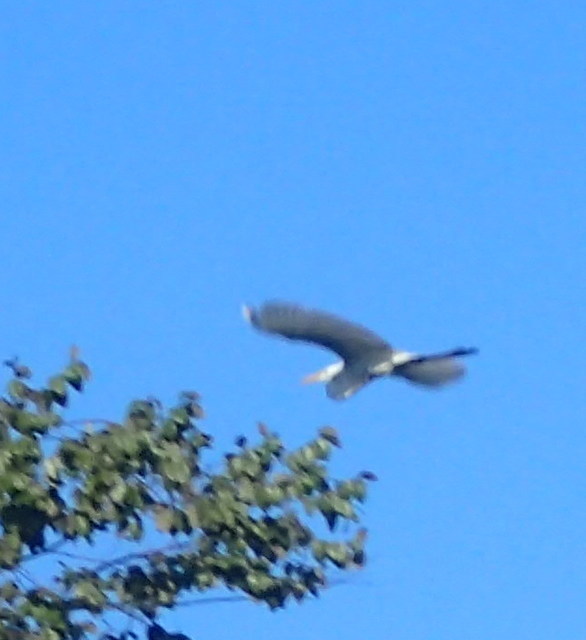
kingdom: Animalia
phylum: Chordata
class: Aves
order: Pelecaniformes
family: Ardeidae
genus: Ardea
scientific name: Ardea alba
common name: Great egret
